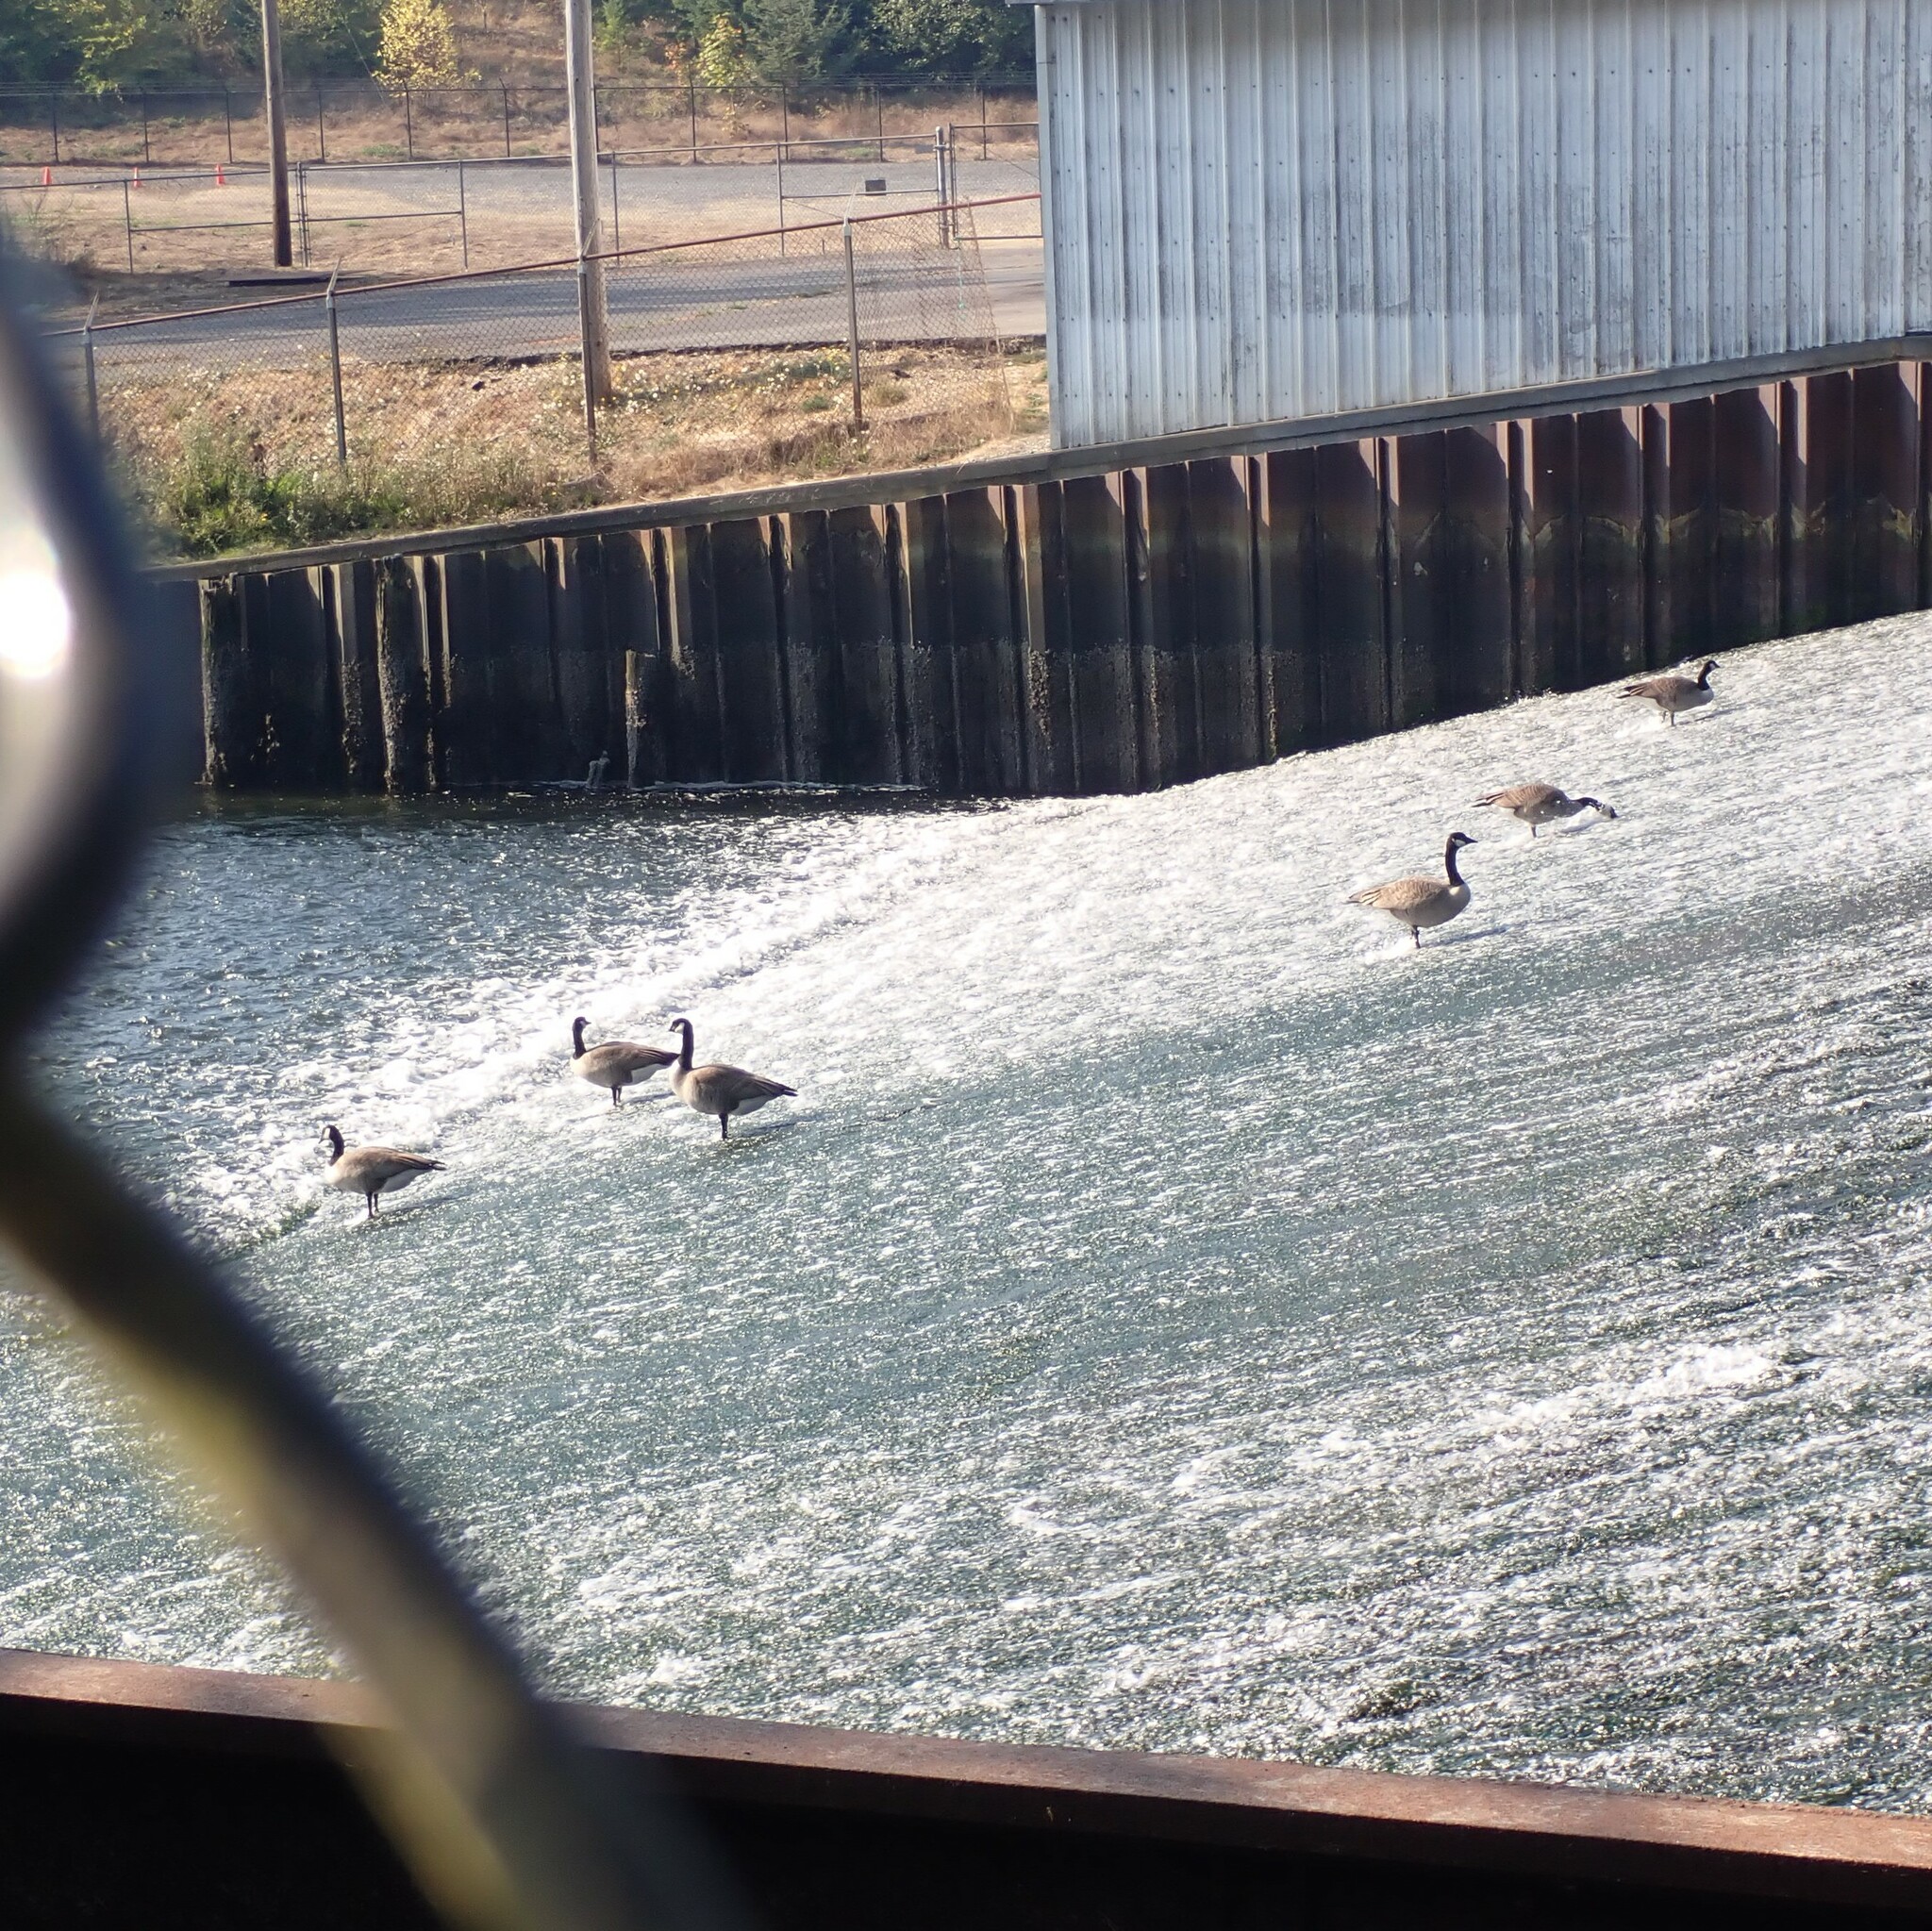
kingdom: Animalia
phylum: Chordata
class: Aves
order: Anseriformes
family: Anatidae
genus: Branta
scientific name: Branta canadensis
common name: Canada goose
